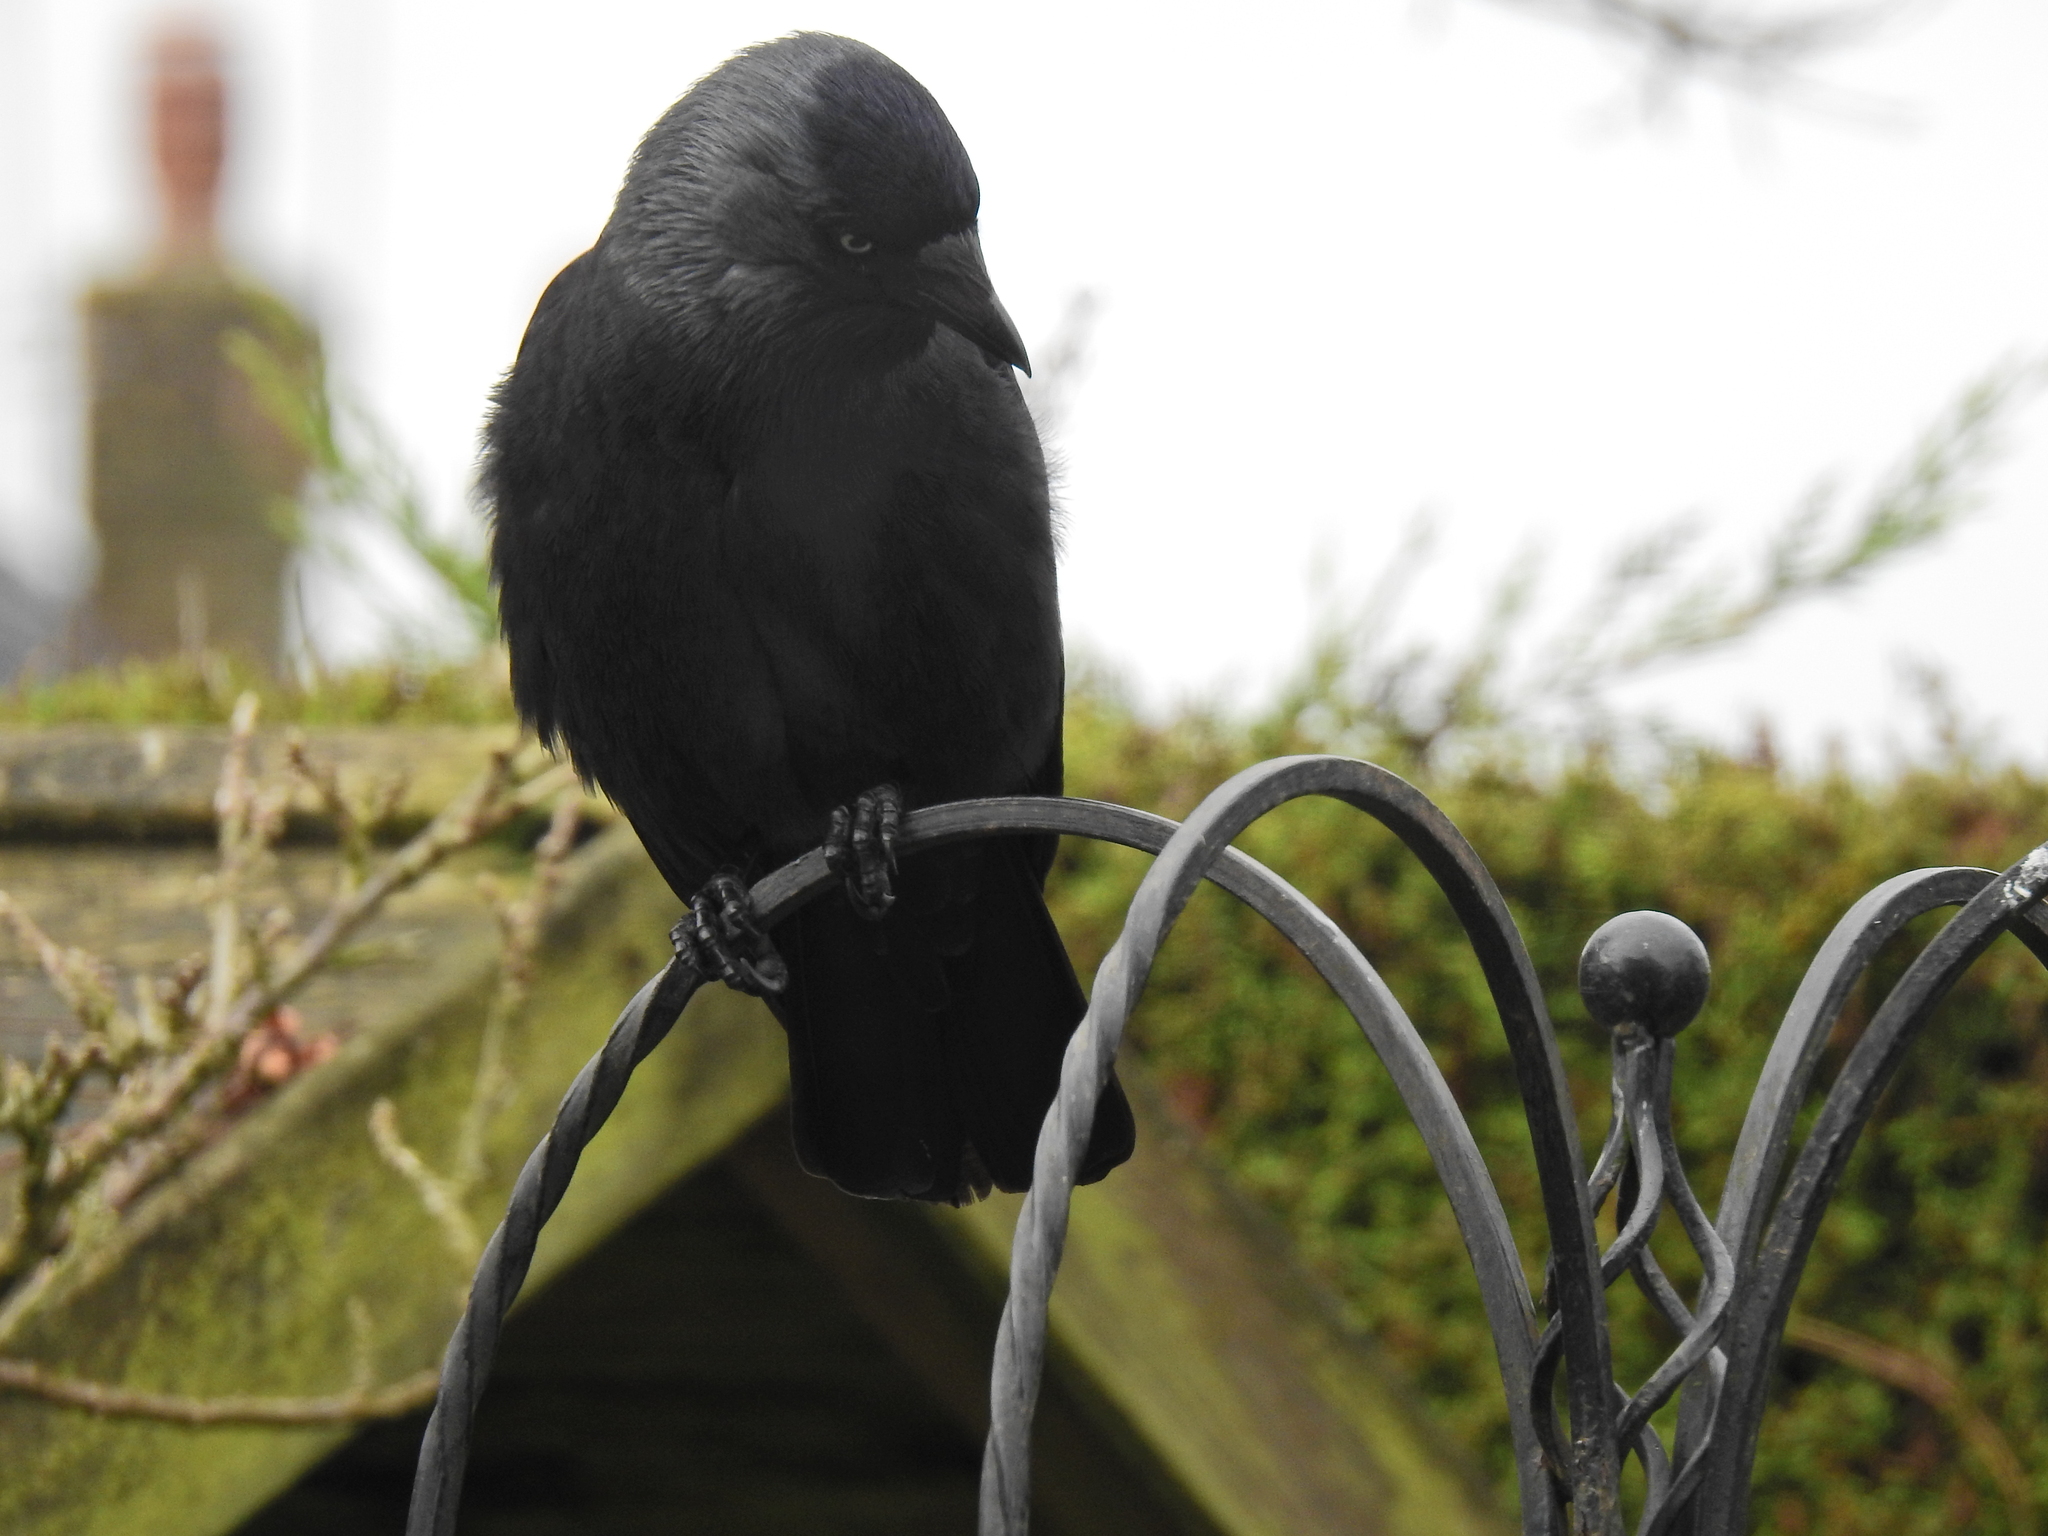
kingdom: Animalia
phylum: Chordata
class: Aves
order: Passeriformes
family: Corvidae
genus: Coloeus
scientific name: Coloeus monedula
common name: Western jackdaw
